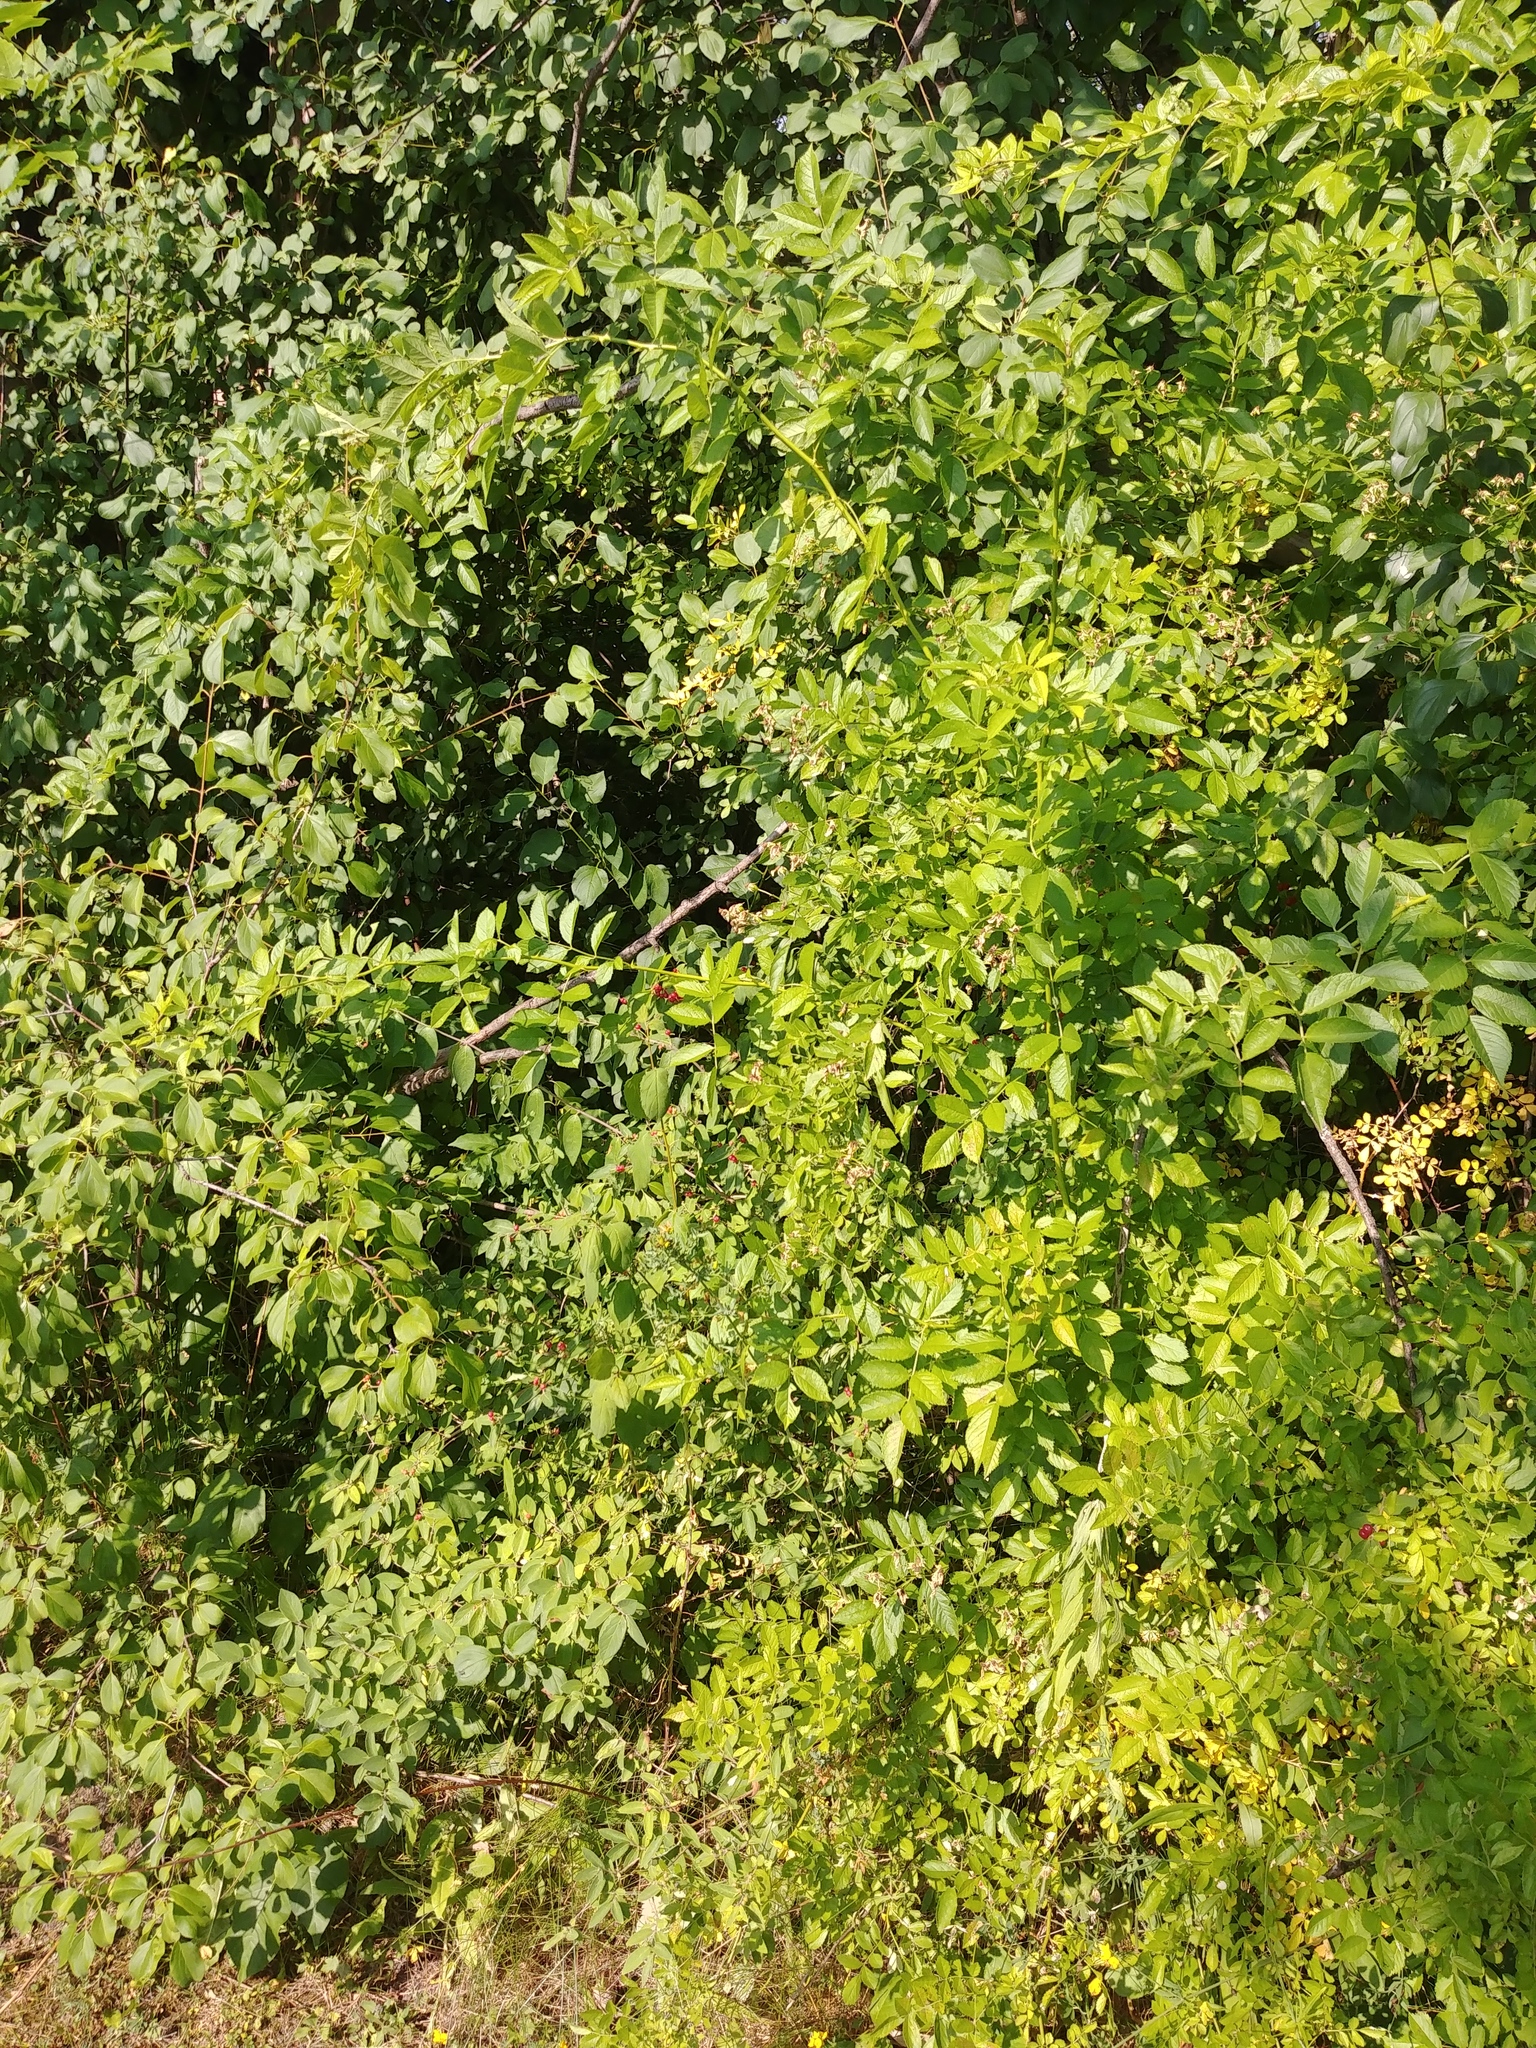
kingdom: Plantae
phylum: Tracheophyta
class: Magnoliopsida
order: Rosales
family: Rosaceae
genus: Rosa
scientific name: Rosa multiflora
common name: Multiflora rose
